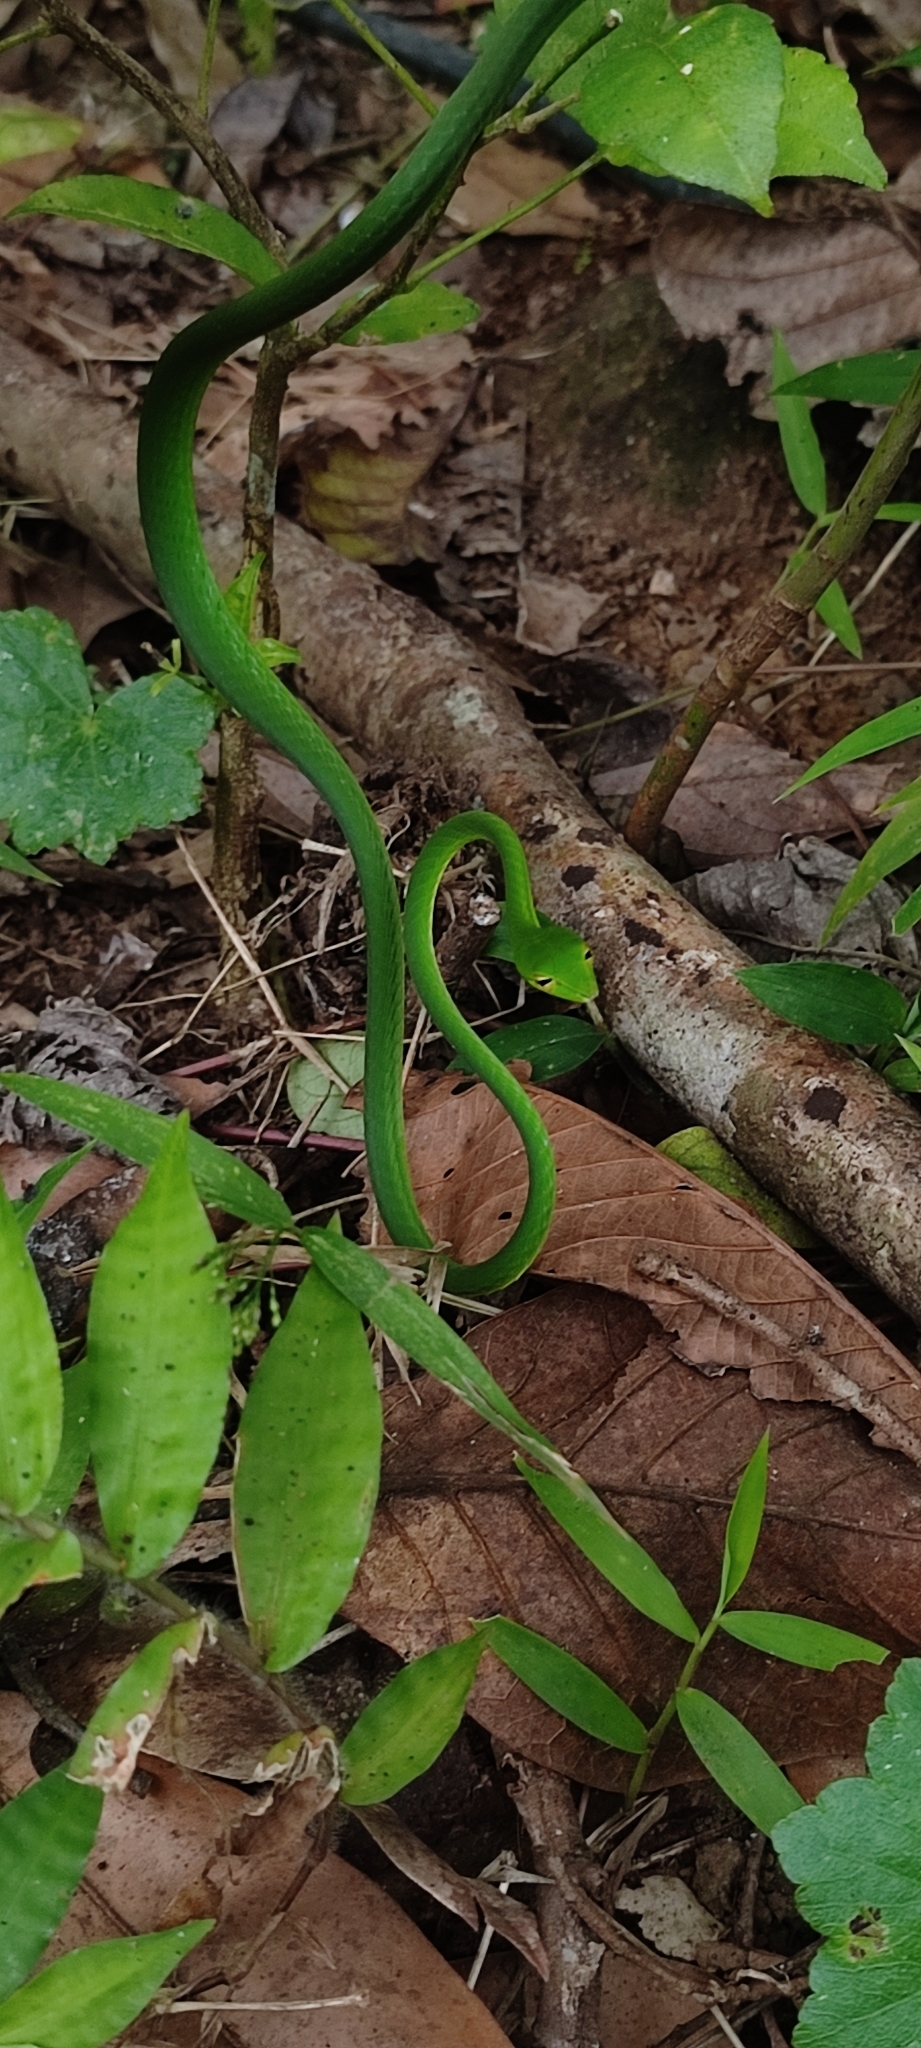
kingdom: Animalia
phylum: Chordata
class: Squamata
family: Colubridae
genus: Ahaetulla
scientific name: Ahaetulla isabellina
